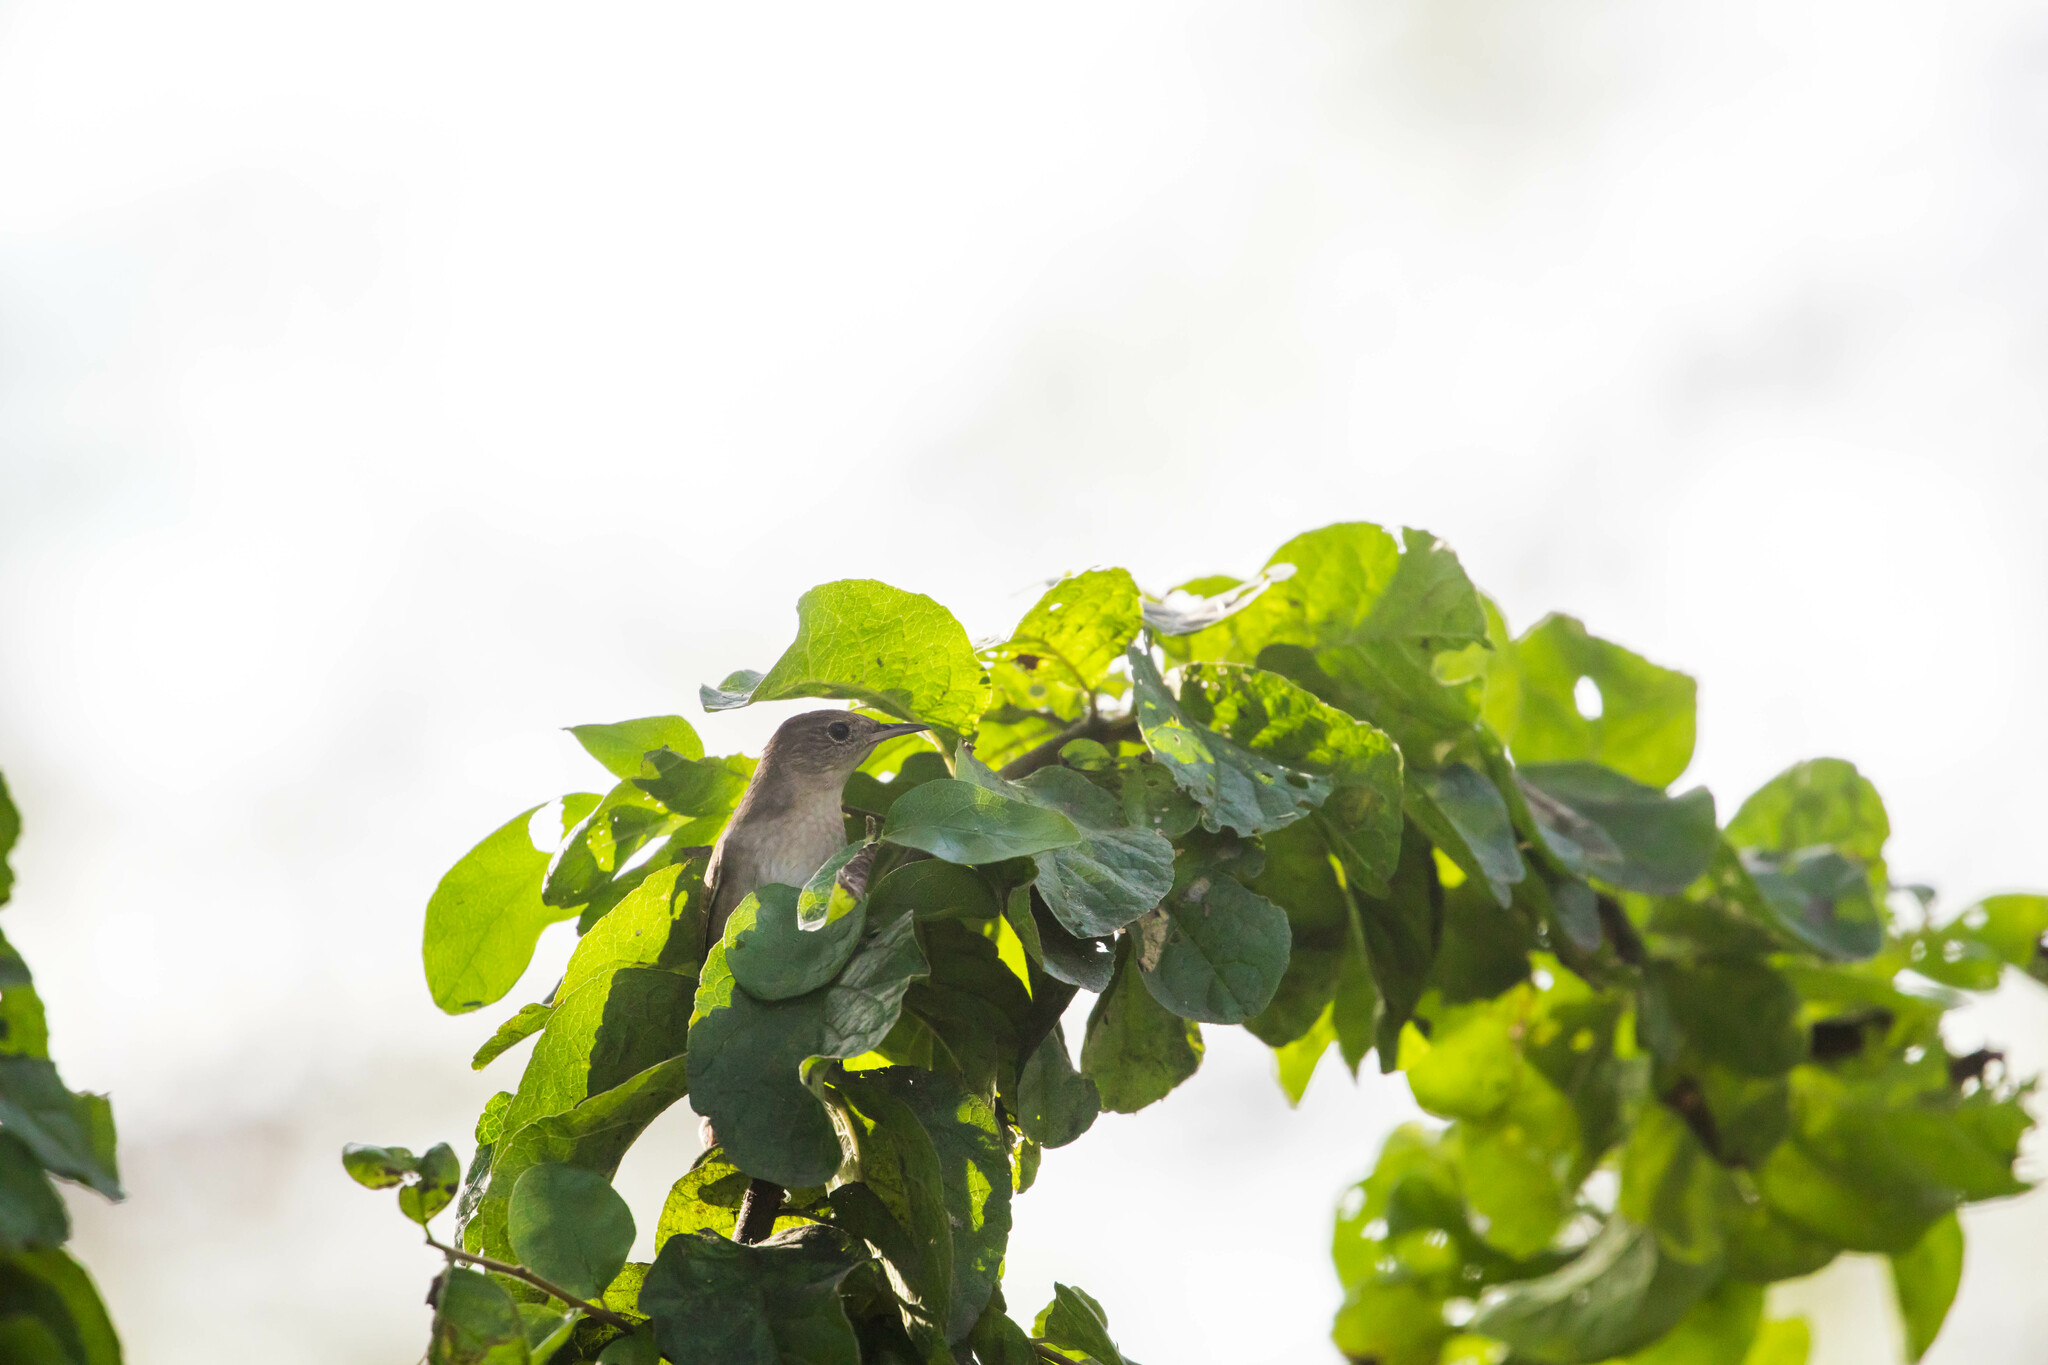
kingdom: Animalia
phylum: Chordata
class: Aves
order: Passeriformes
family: Troglodytidae
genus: Troglodytes
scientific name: Troglodytes aedon
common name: House wren
